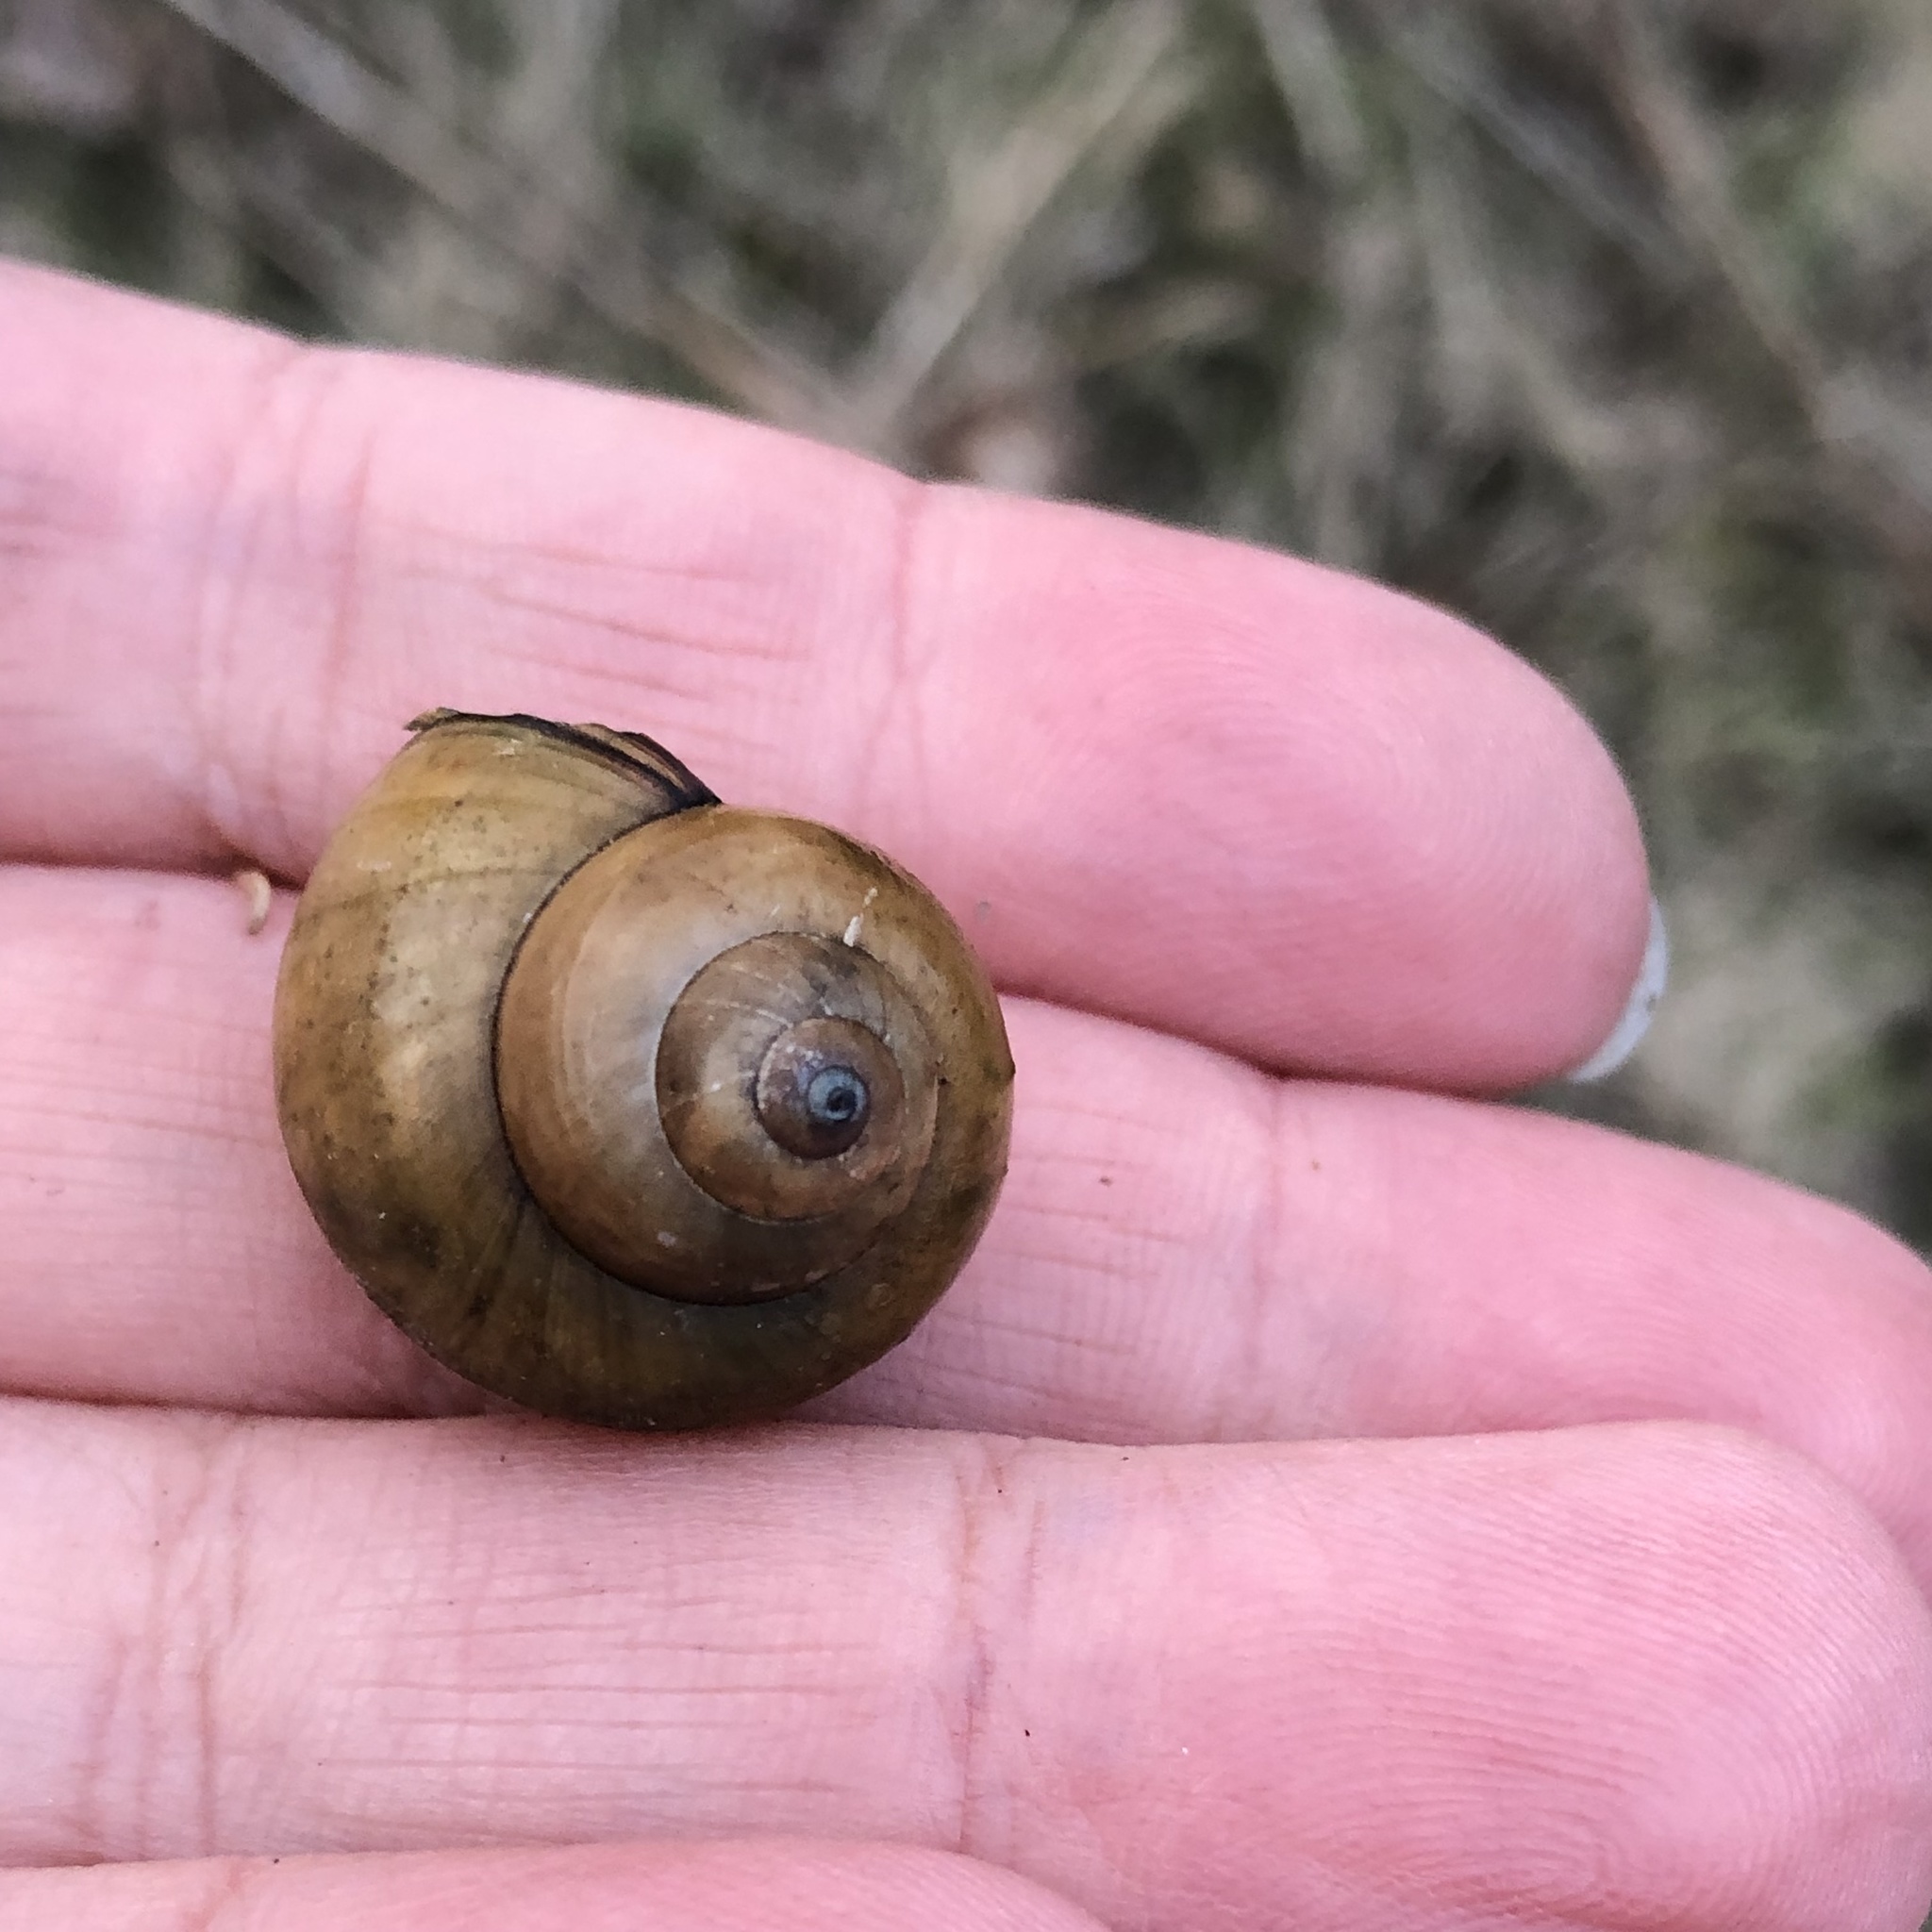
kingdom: Animalia
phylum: Mollusca
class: Gastropoda
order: Architaenioglossa
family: Viviparidae
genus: Cipangopaludina
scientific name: Cipangopaludina chinensis
